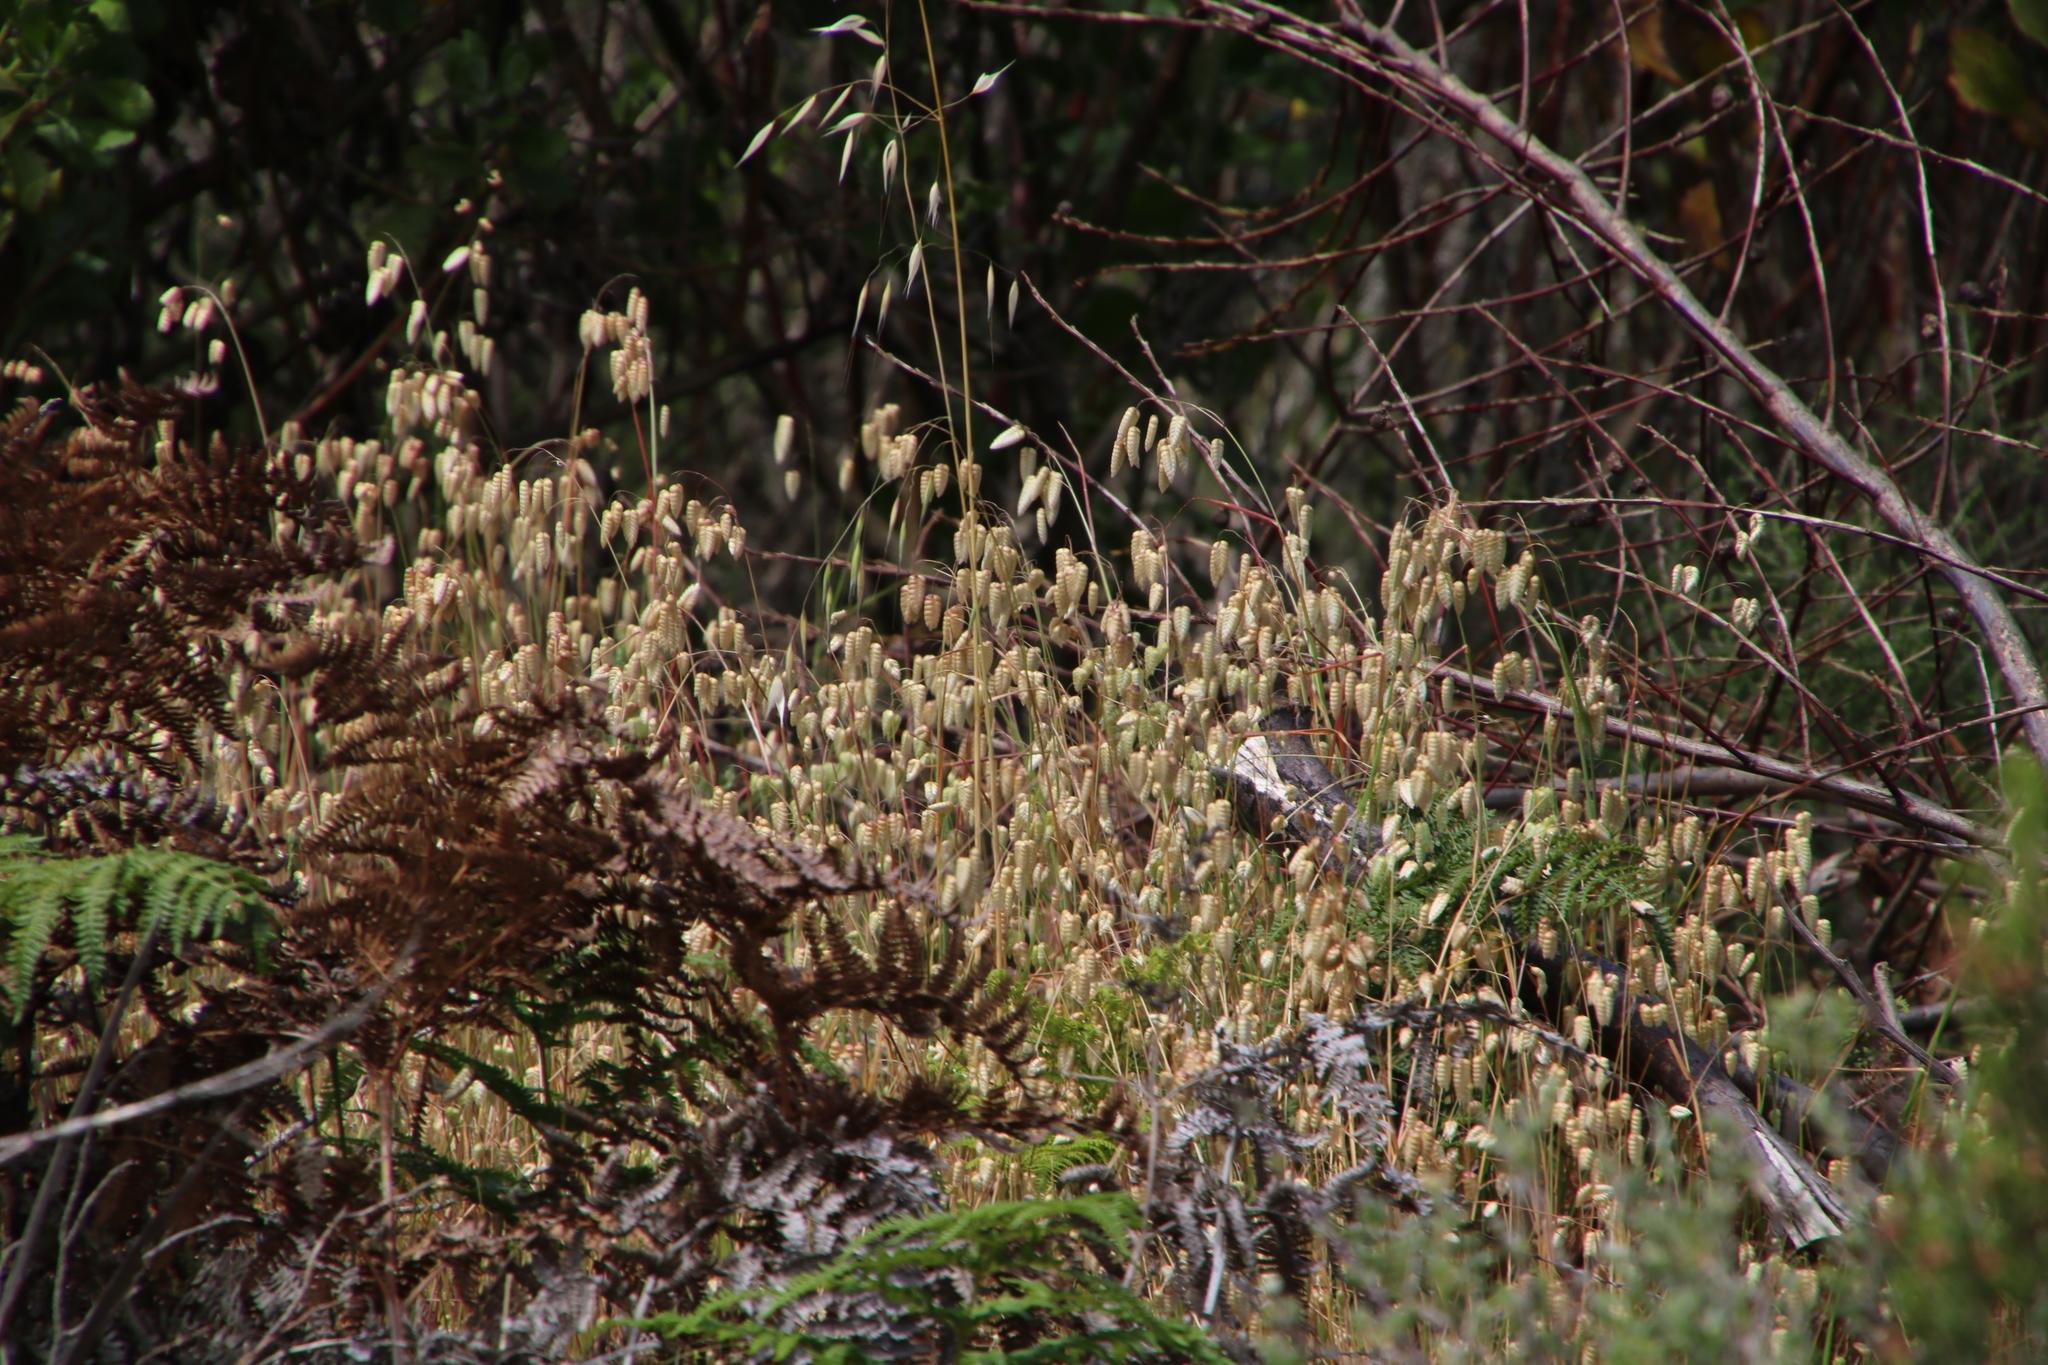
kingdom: Plantae
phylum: Tracheophyta
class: Liliopsida
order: Poales
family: Poaceae
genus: Briza
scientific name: Briza maxima
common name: Big quakinggrass
